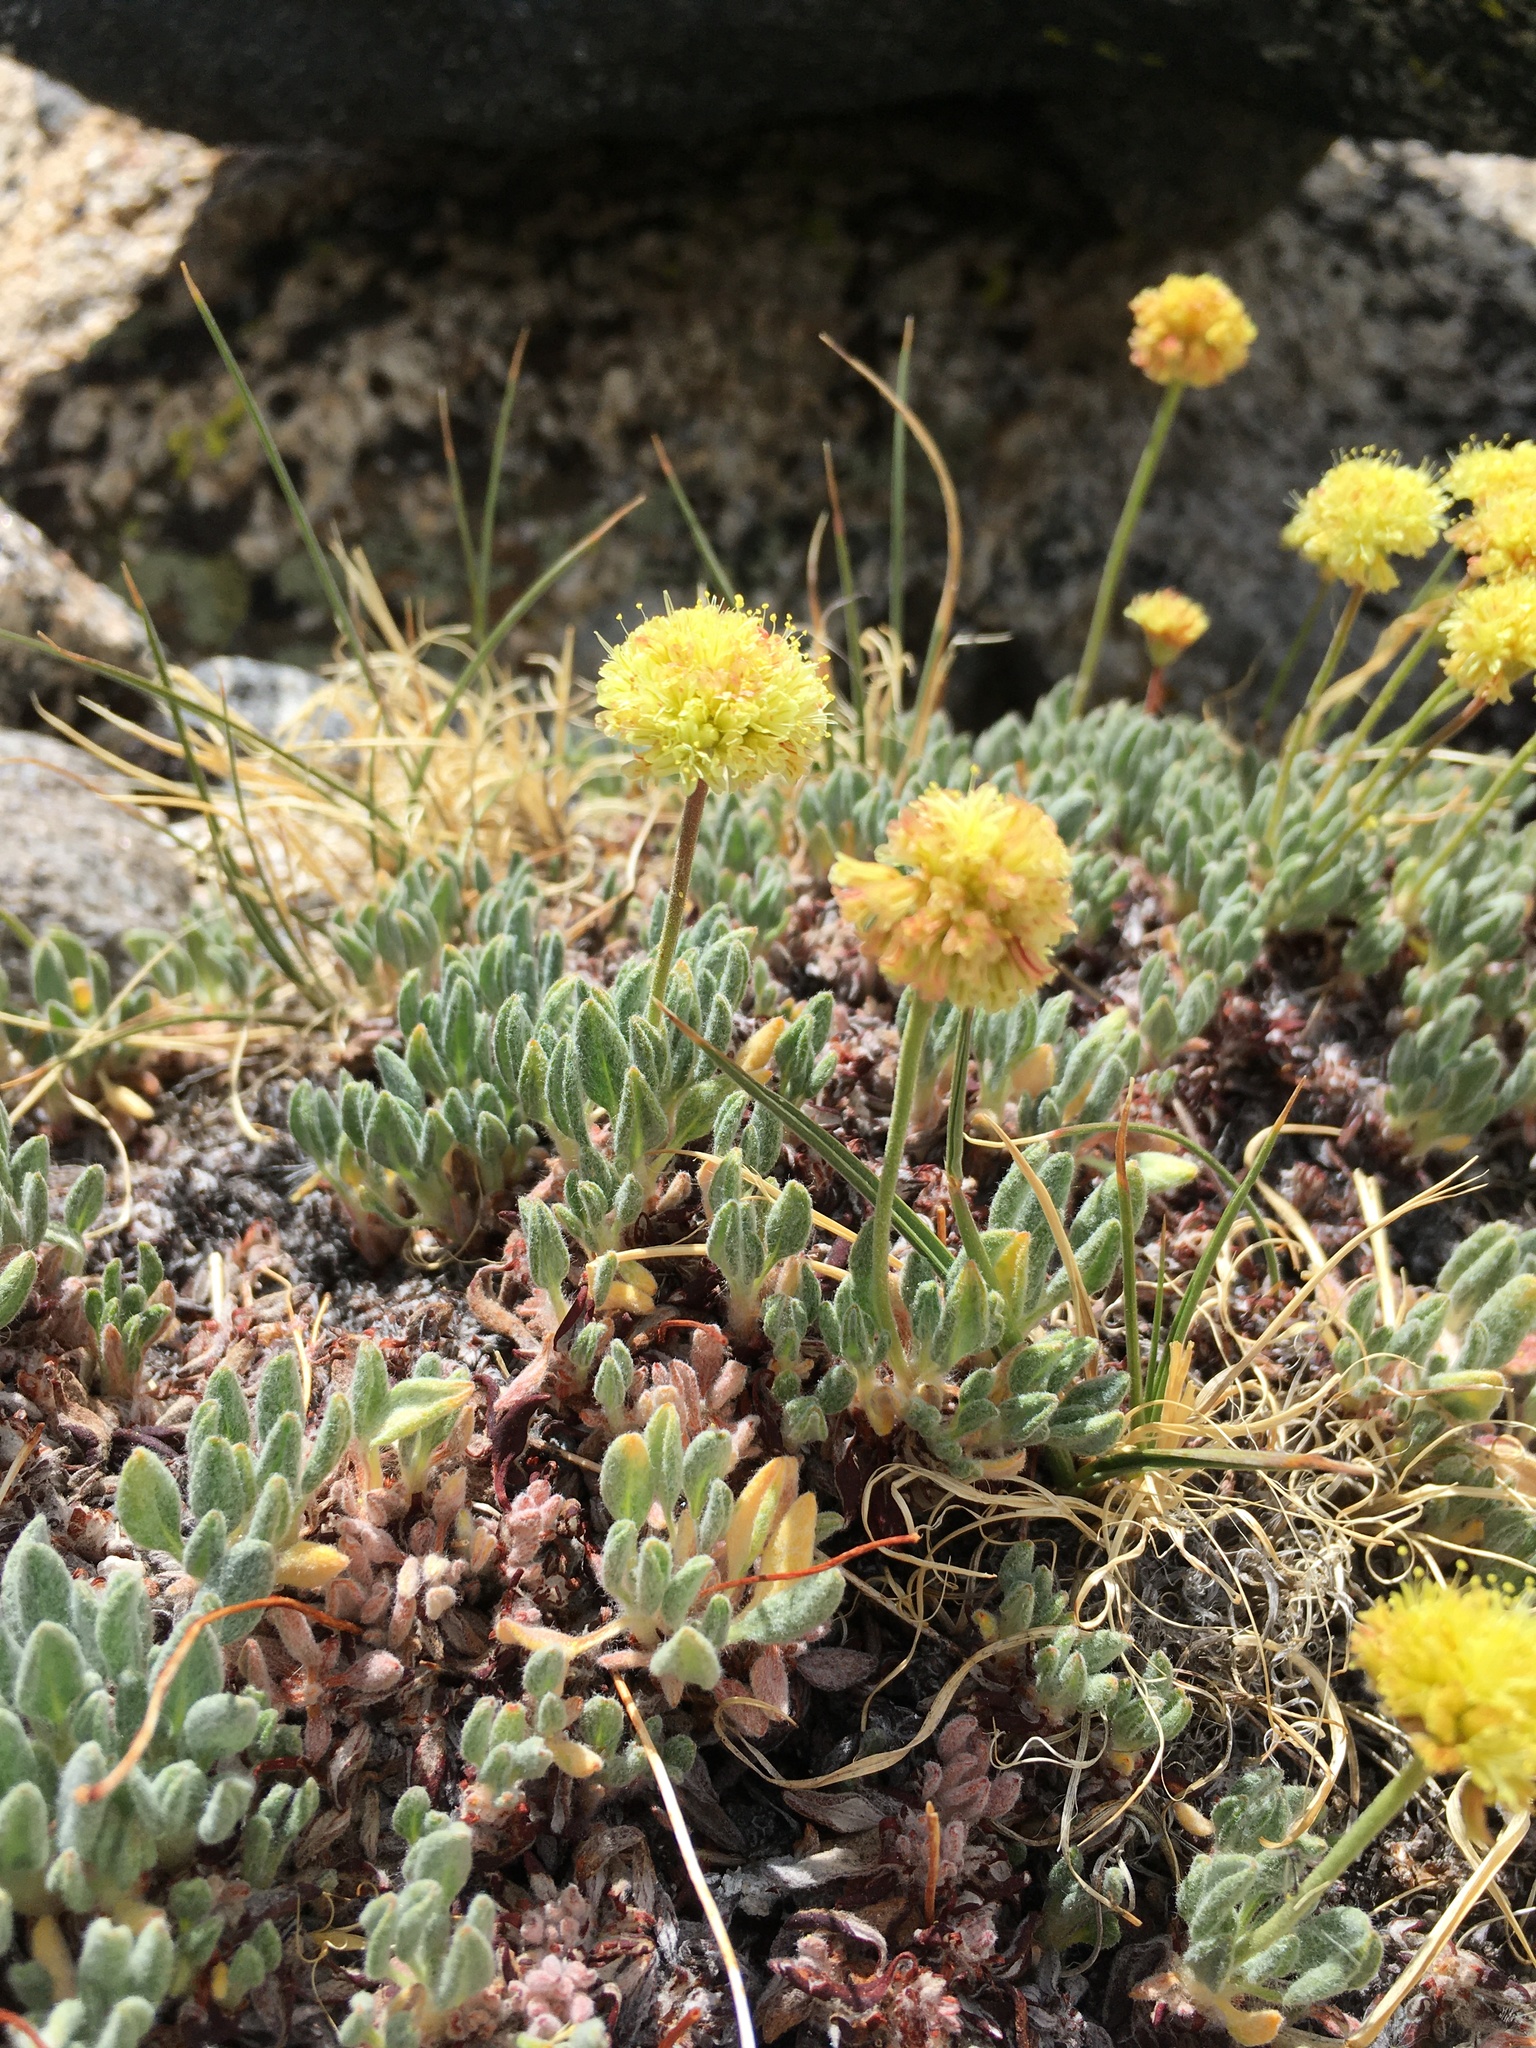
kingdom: Plantae
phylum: Tracheophyta
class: Magnoliopsida
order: Caryophyllales
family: Polygonaceae
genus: Eriogonum
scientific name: Eriogonum rosense
